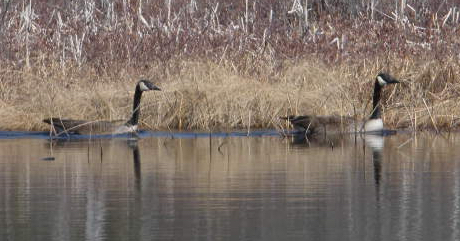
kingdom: Animalia
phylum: Chordata
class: Aves
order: Anseriformes
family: Anatidae
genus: Branta
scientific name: Branta canadensis
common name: Canada goose
